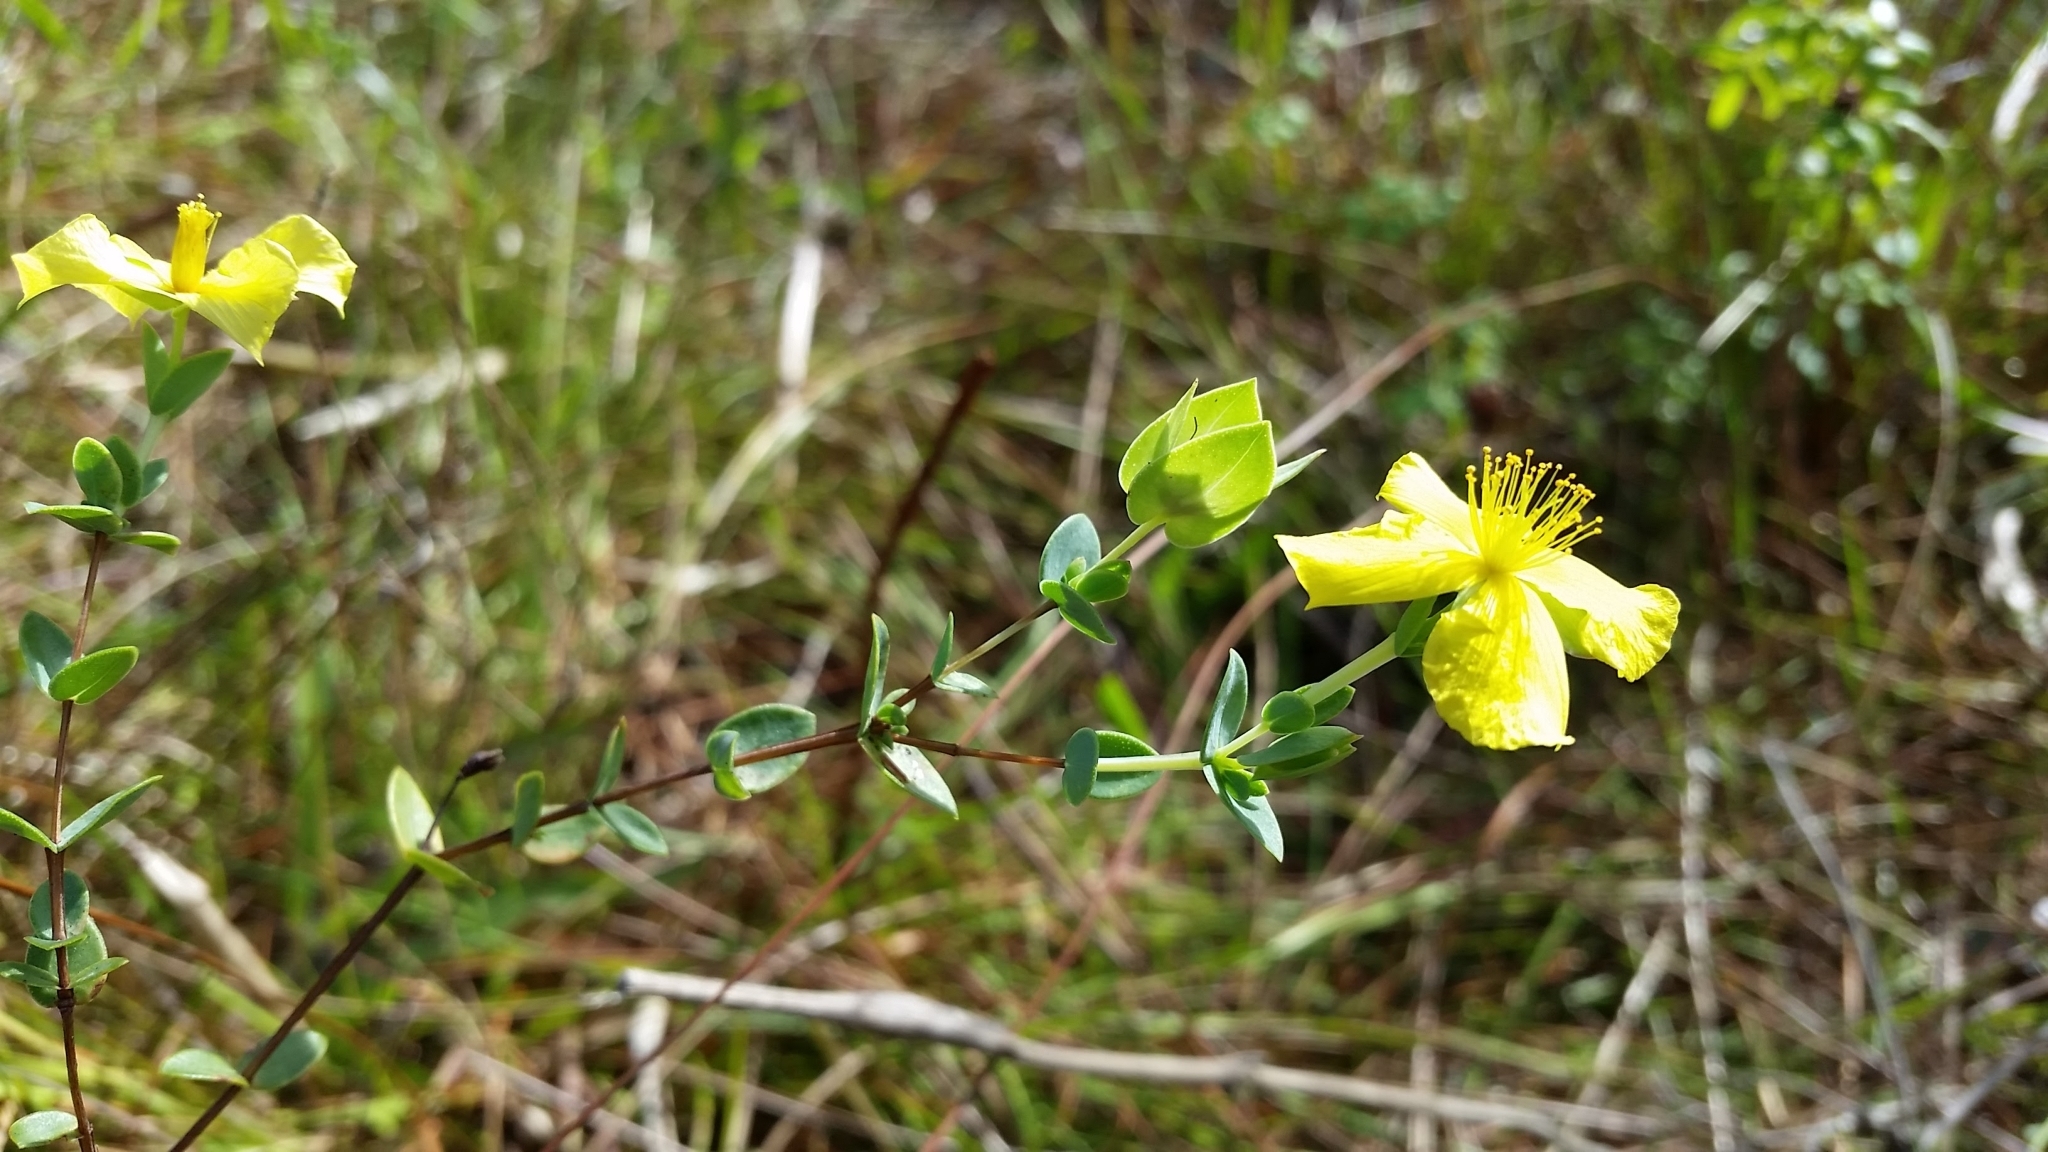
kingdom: Plantae
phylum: Tracheophyta
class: Magnoliopsida
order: Malpighiales
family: Hypericaceae
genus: Hypericum
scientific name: Hypericum tetrapetalum
